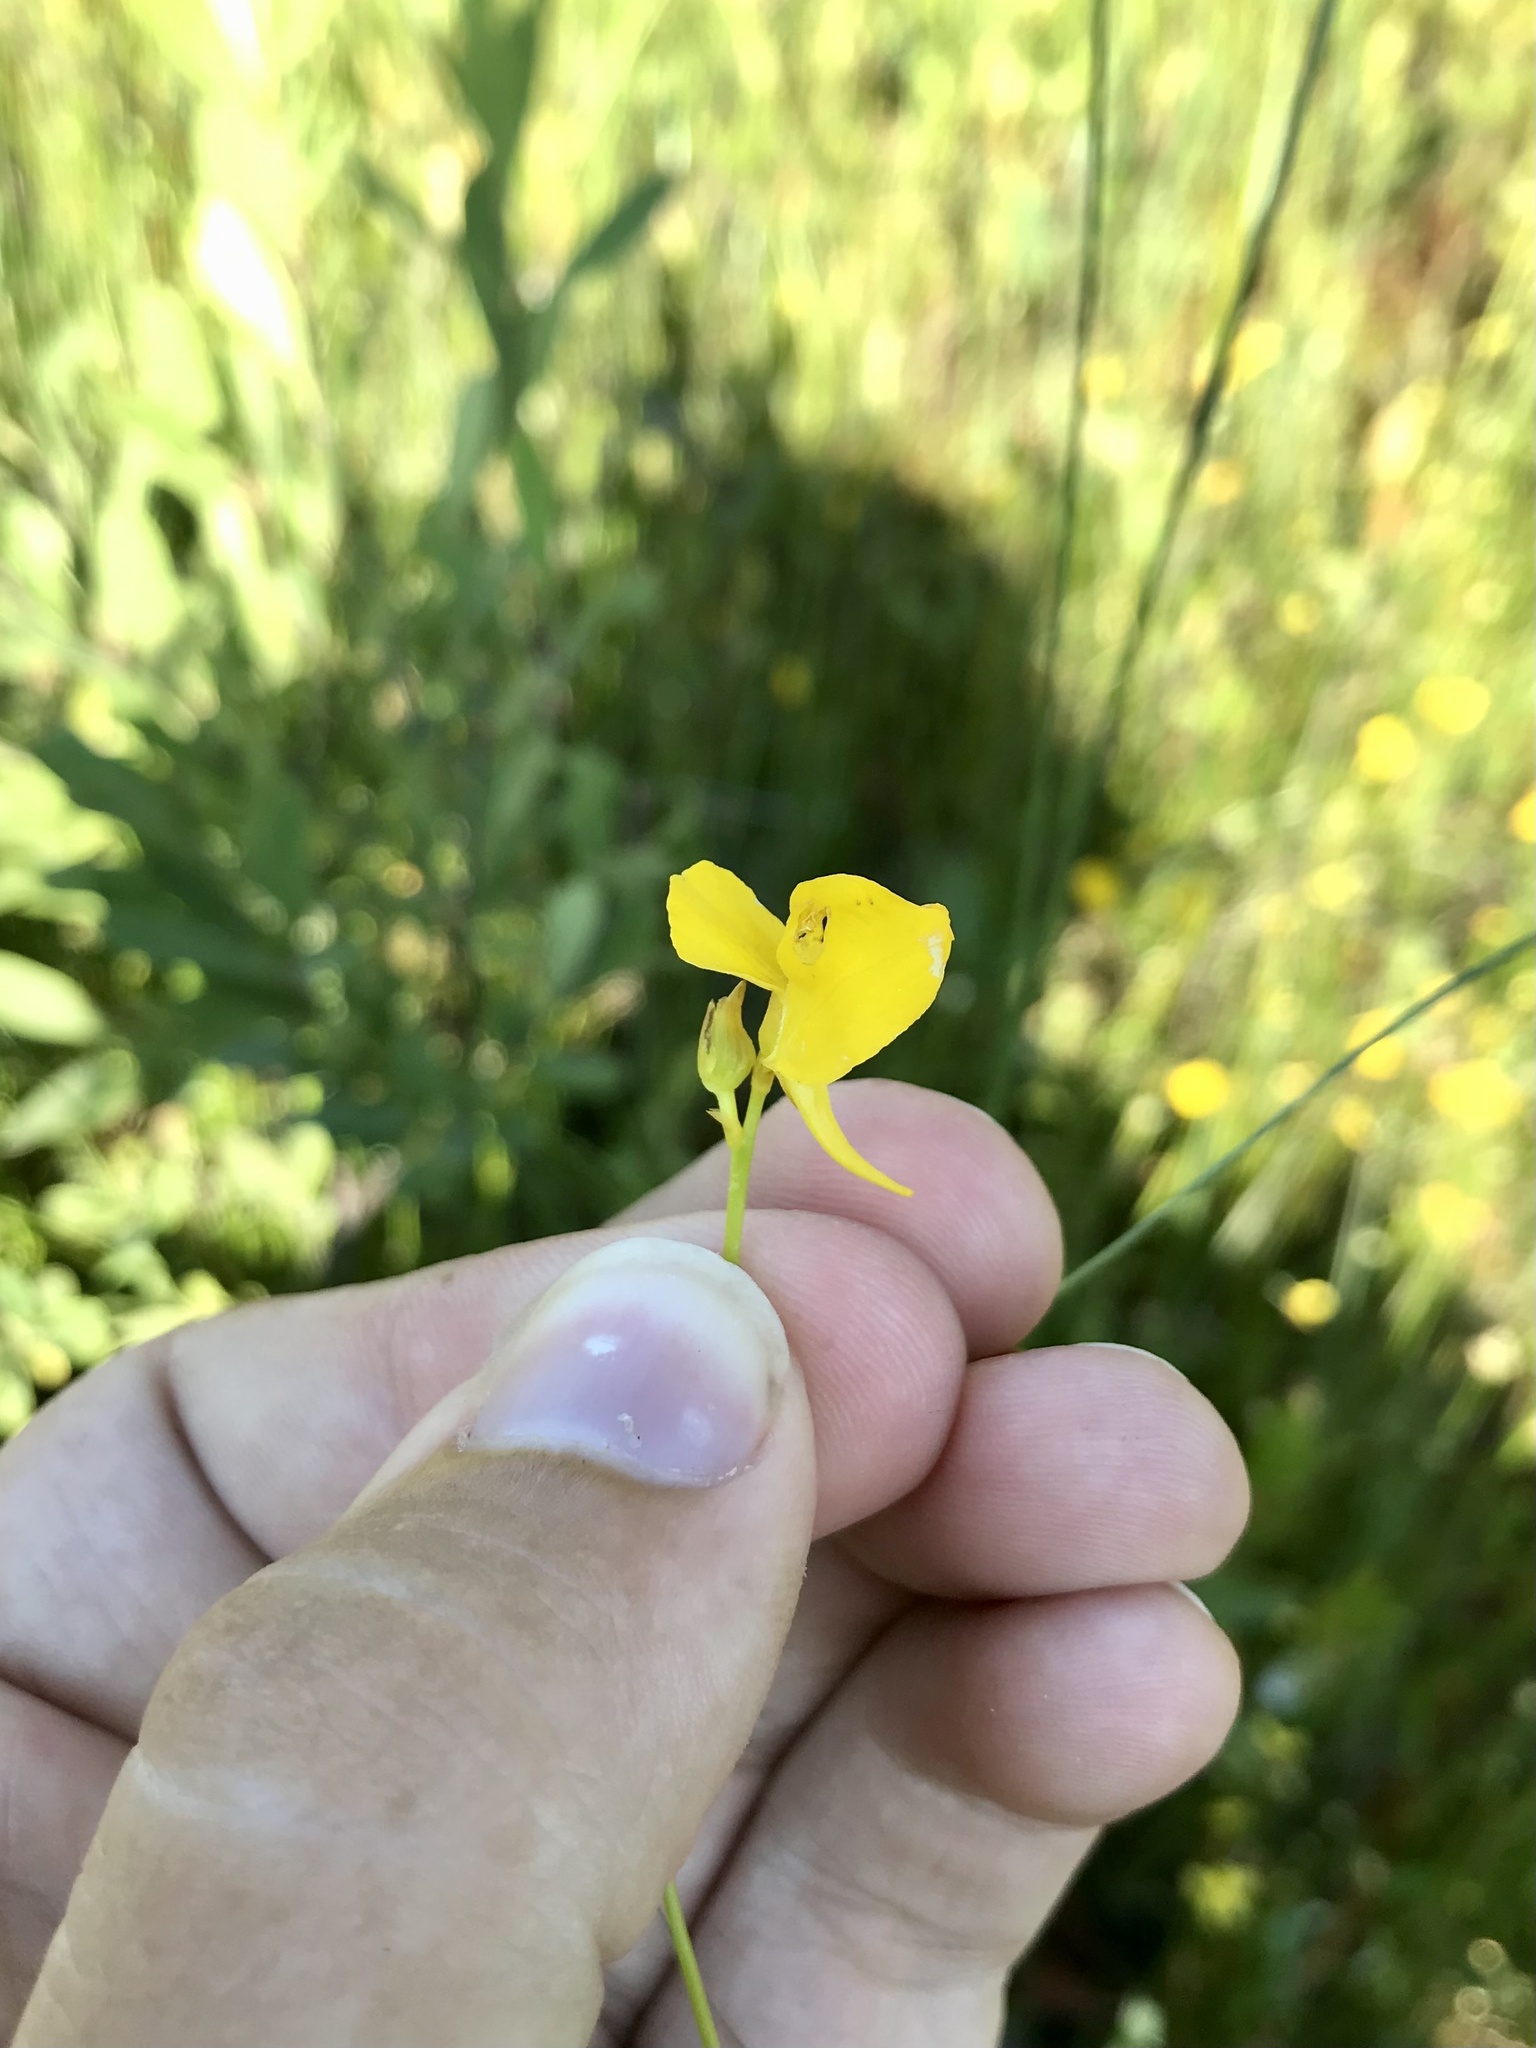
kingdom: Plantae
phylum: Tracheophyta
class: Magnoliopsida
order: Lamiales
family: Lentibulariaceae
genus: Utricularia
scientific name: Utricularia cornuta
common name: Horned bladderwort
